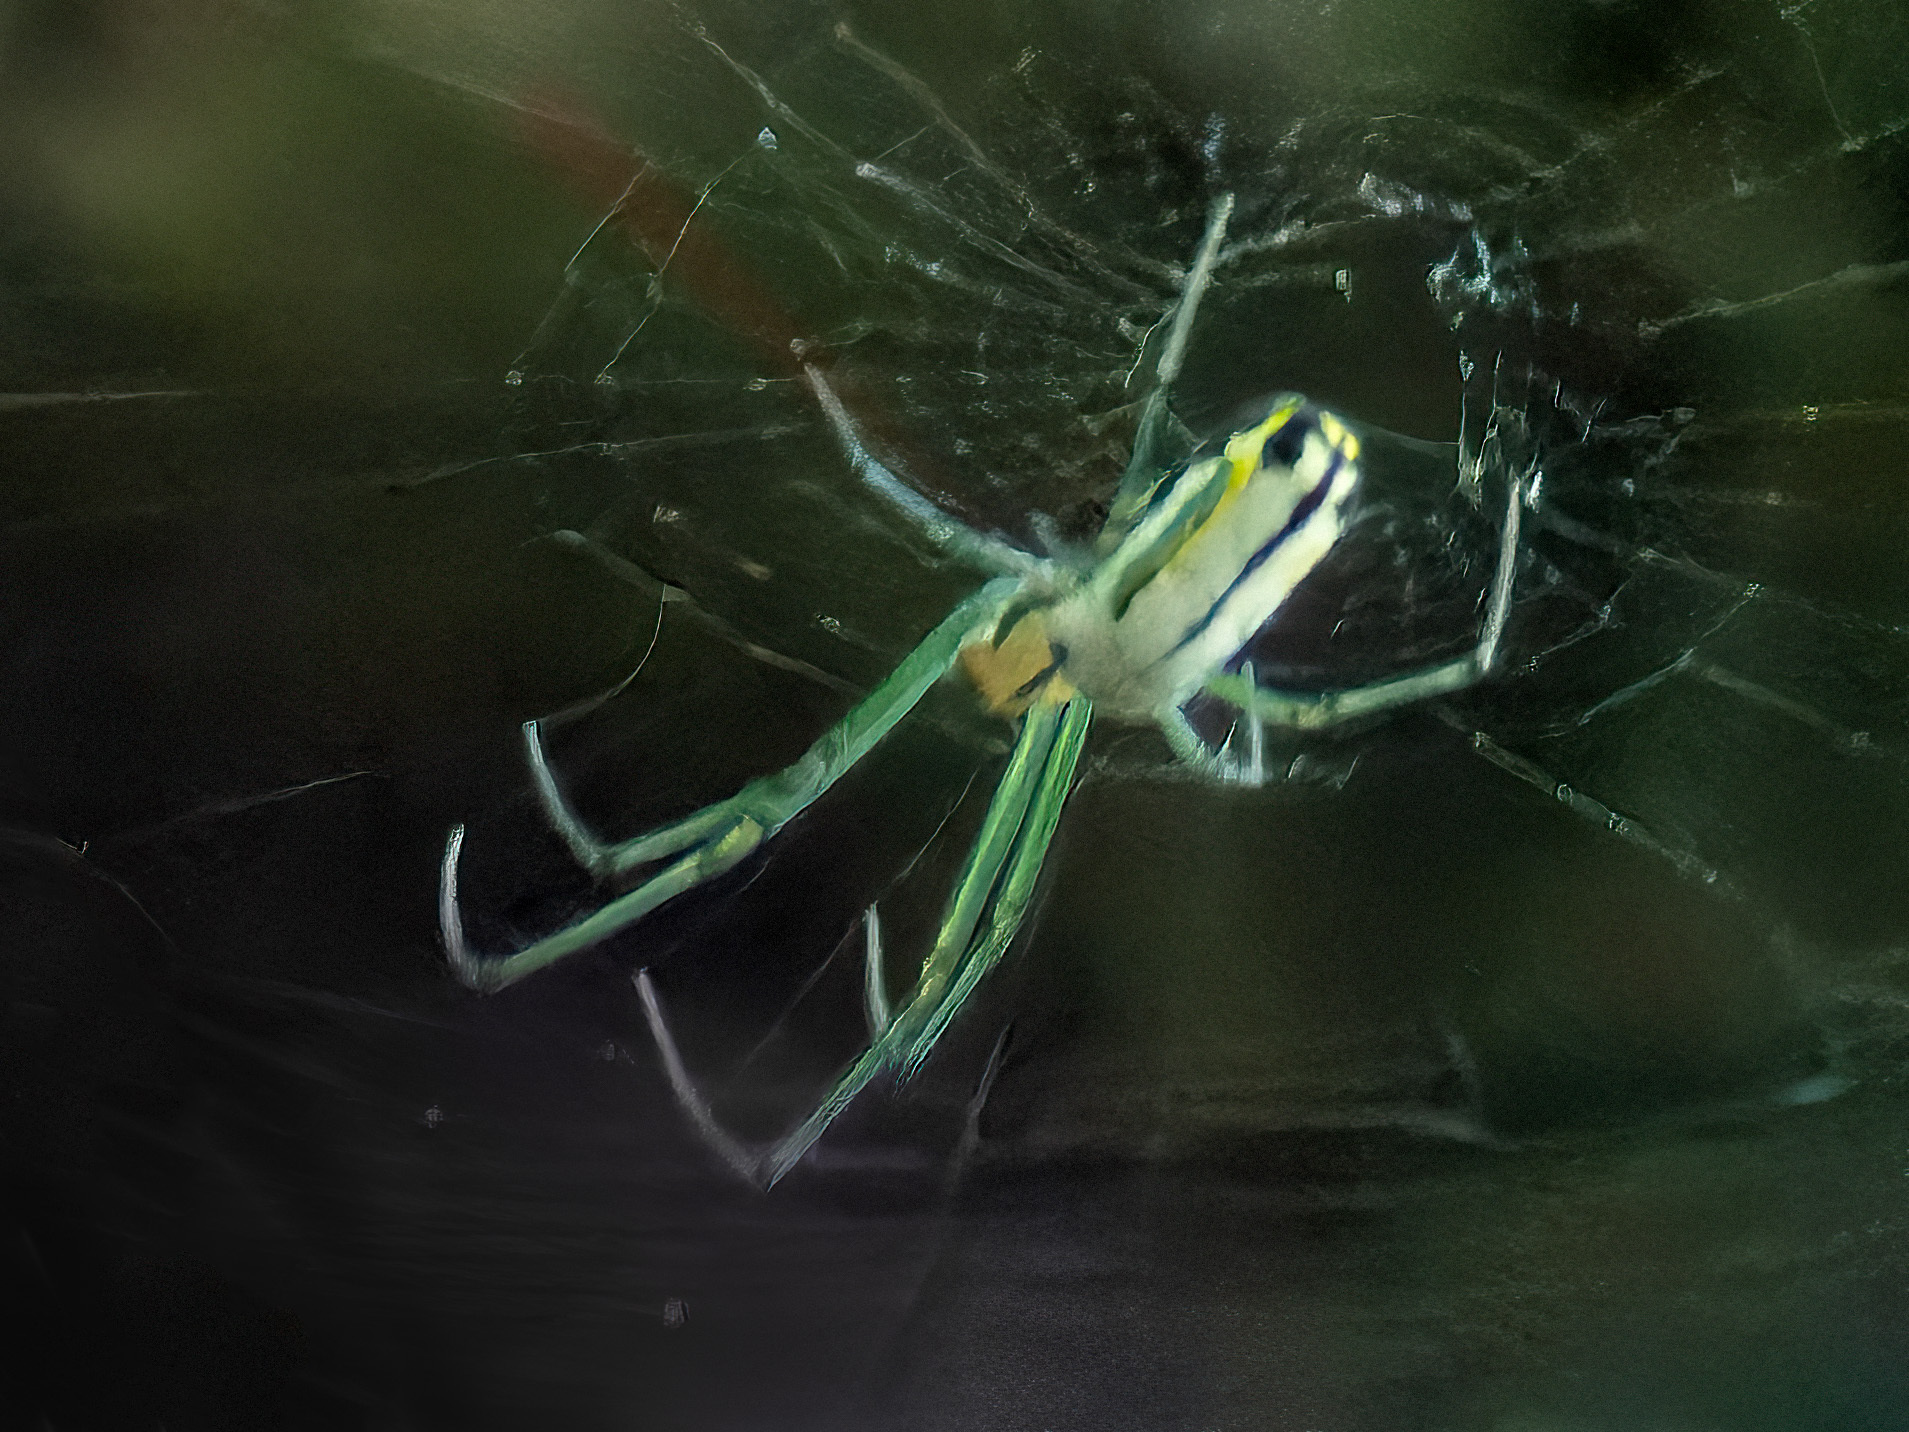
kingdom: Animalia
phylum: Arthropoda
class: Arachnida
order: Araneae
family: Tetragnathidae
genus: Leucauge
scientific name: Leucauge venusta
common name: Longjawed orb weavers
